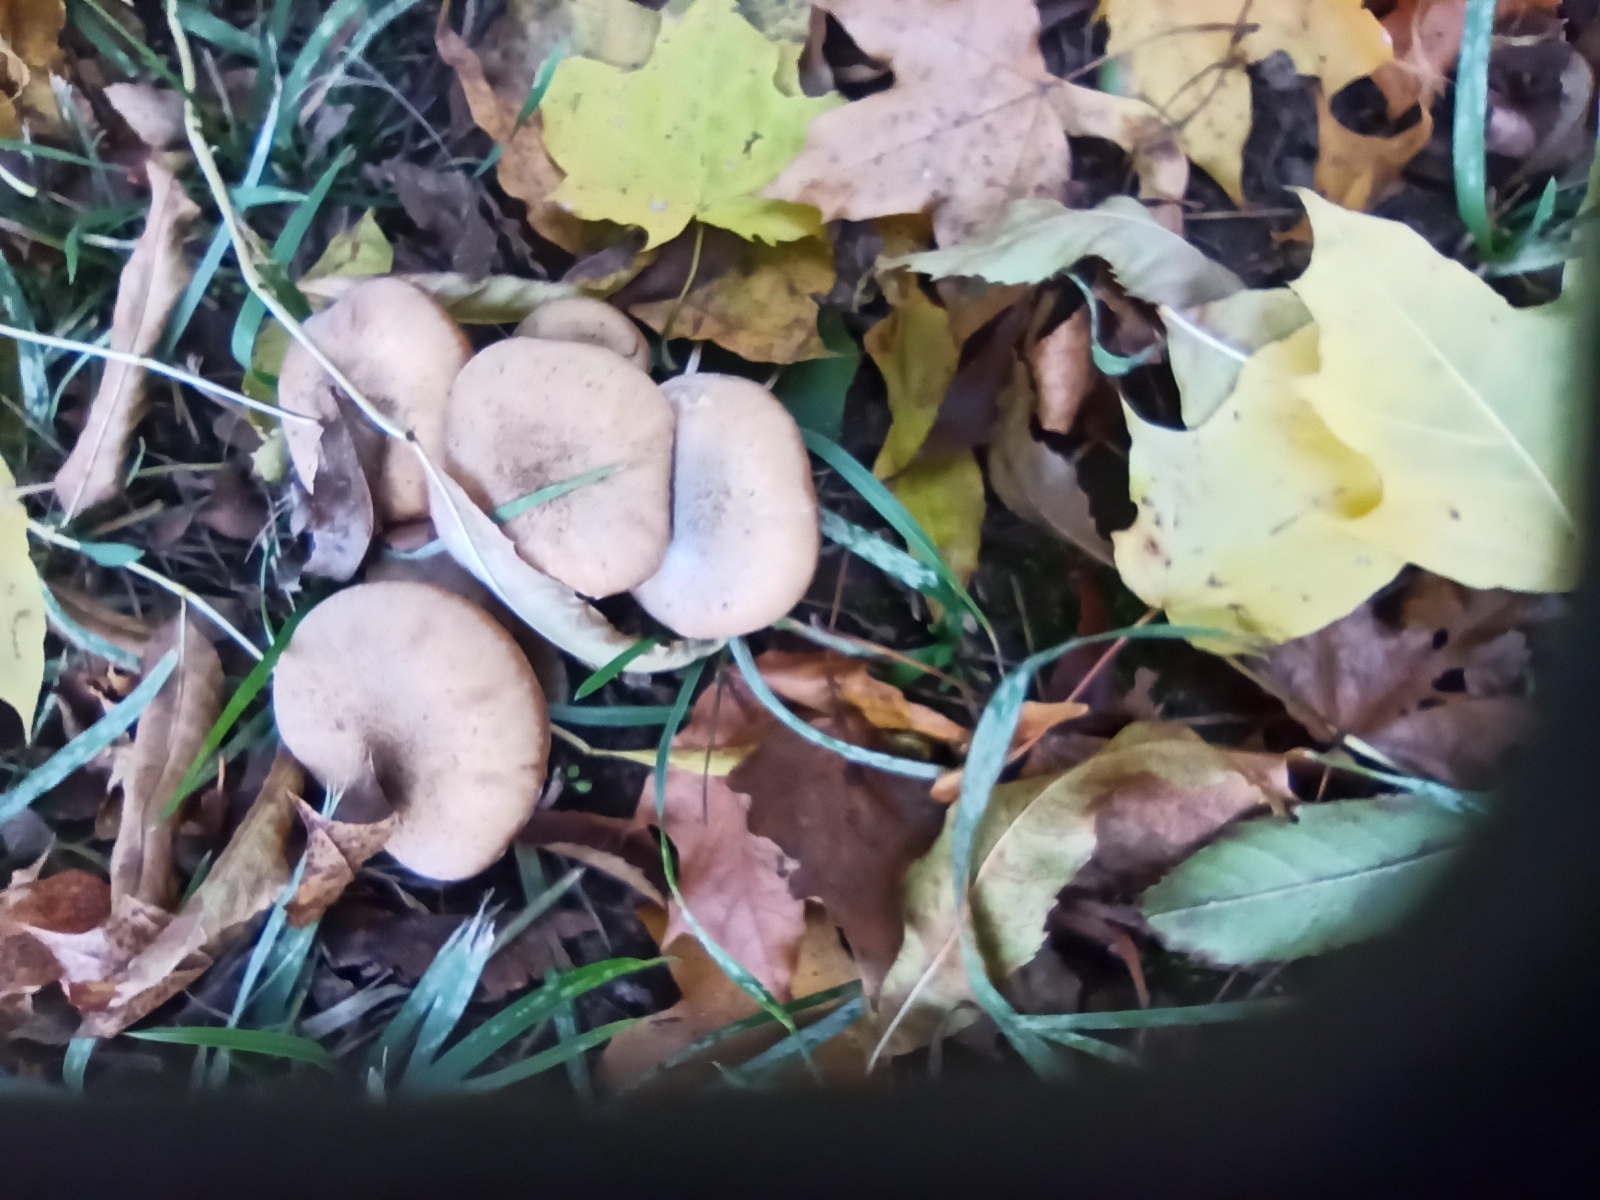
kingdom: Fungi
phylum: Basidiomycota
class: Agaricomycetes
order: Agaricales
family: Physalacriaceae
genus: Armillaria
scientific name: Armillaria cepistipes
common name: Mullet honey fungus
